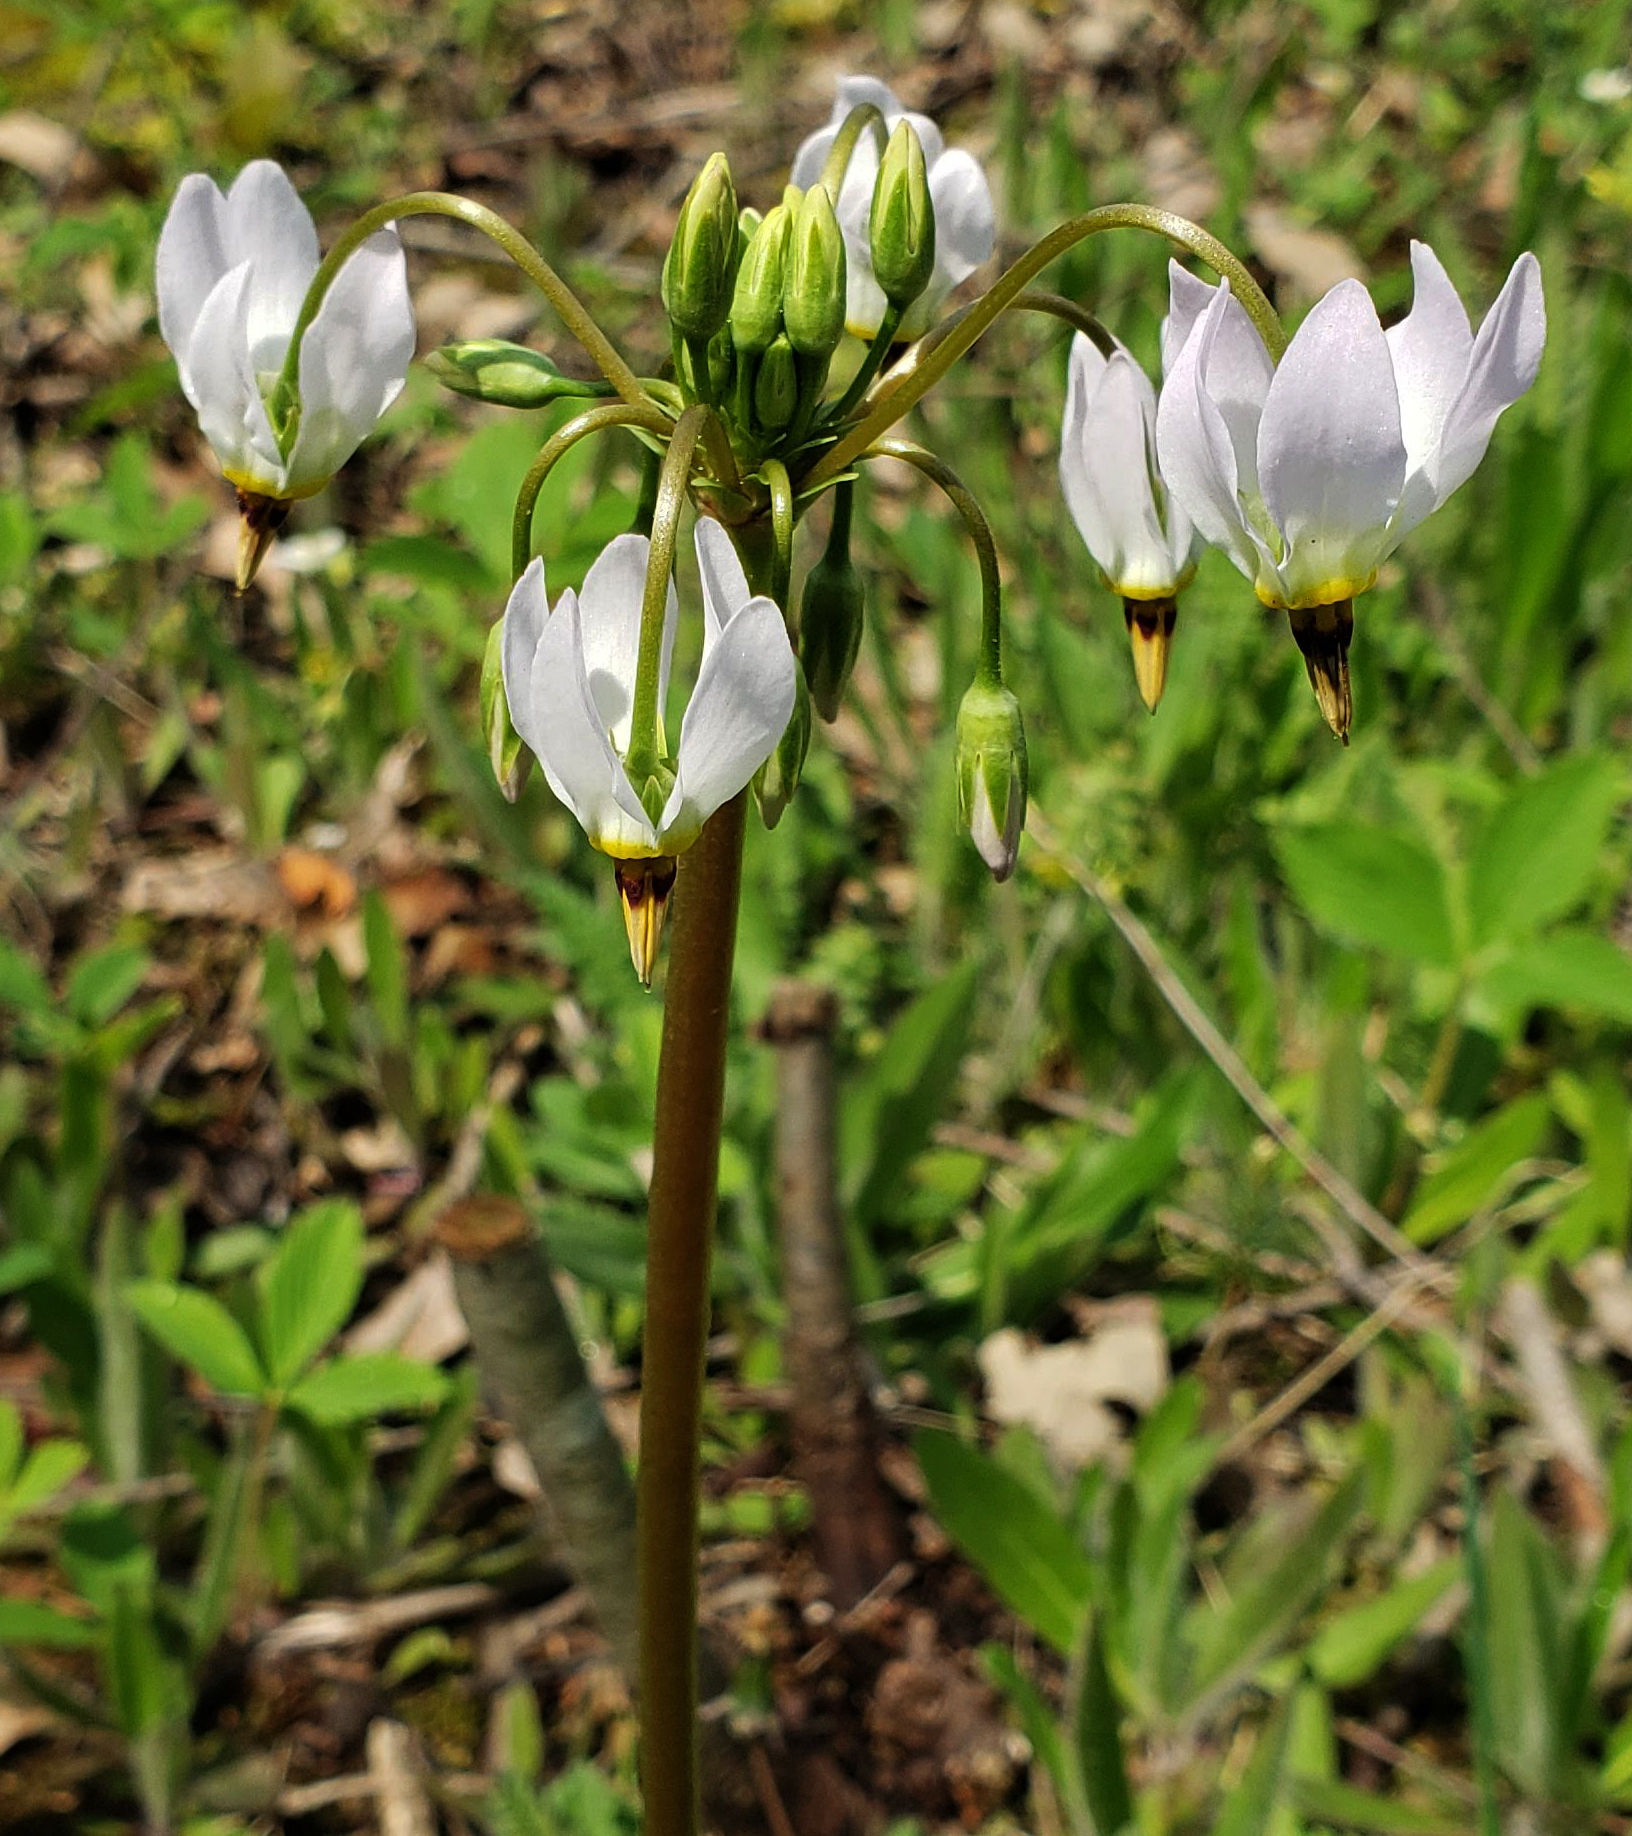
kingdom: Plantae
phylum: Tracheophyta
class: Magnoliopsida
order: Ericales
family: Primulaceae
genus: Dodecatheon
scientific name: Dodecatheon meadia
